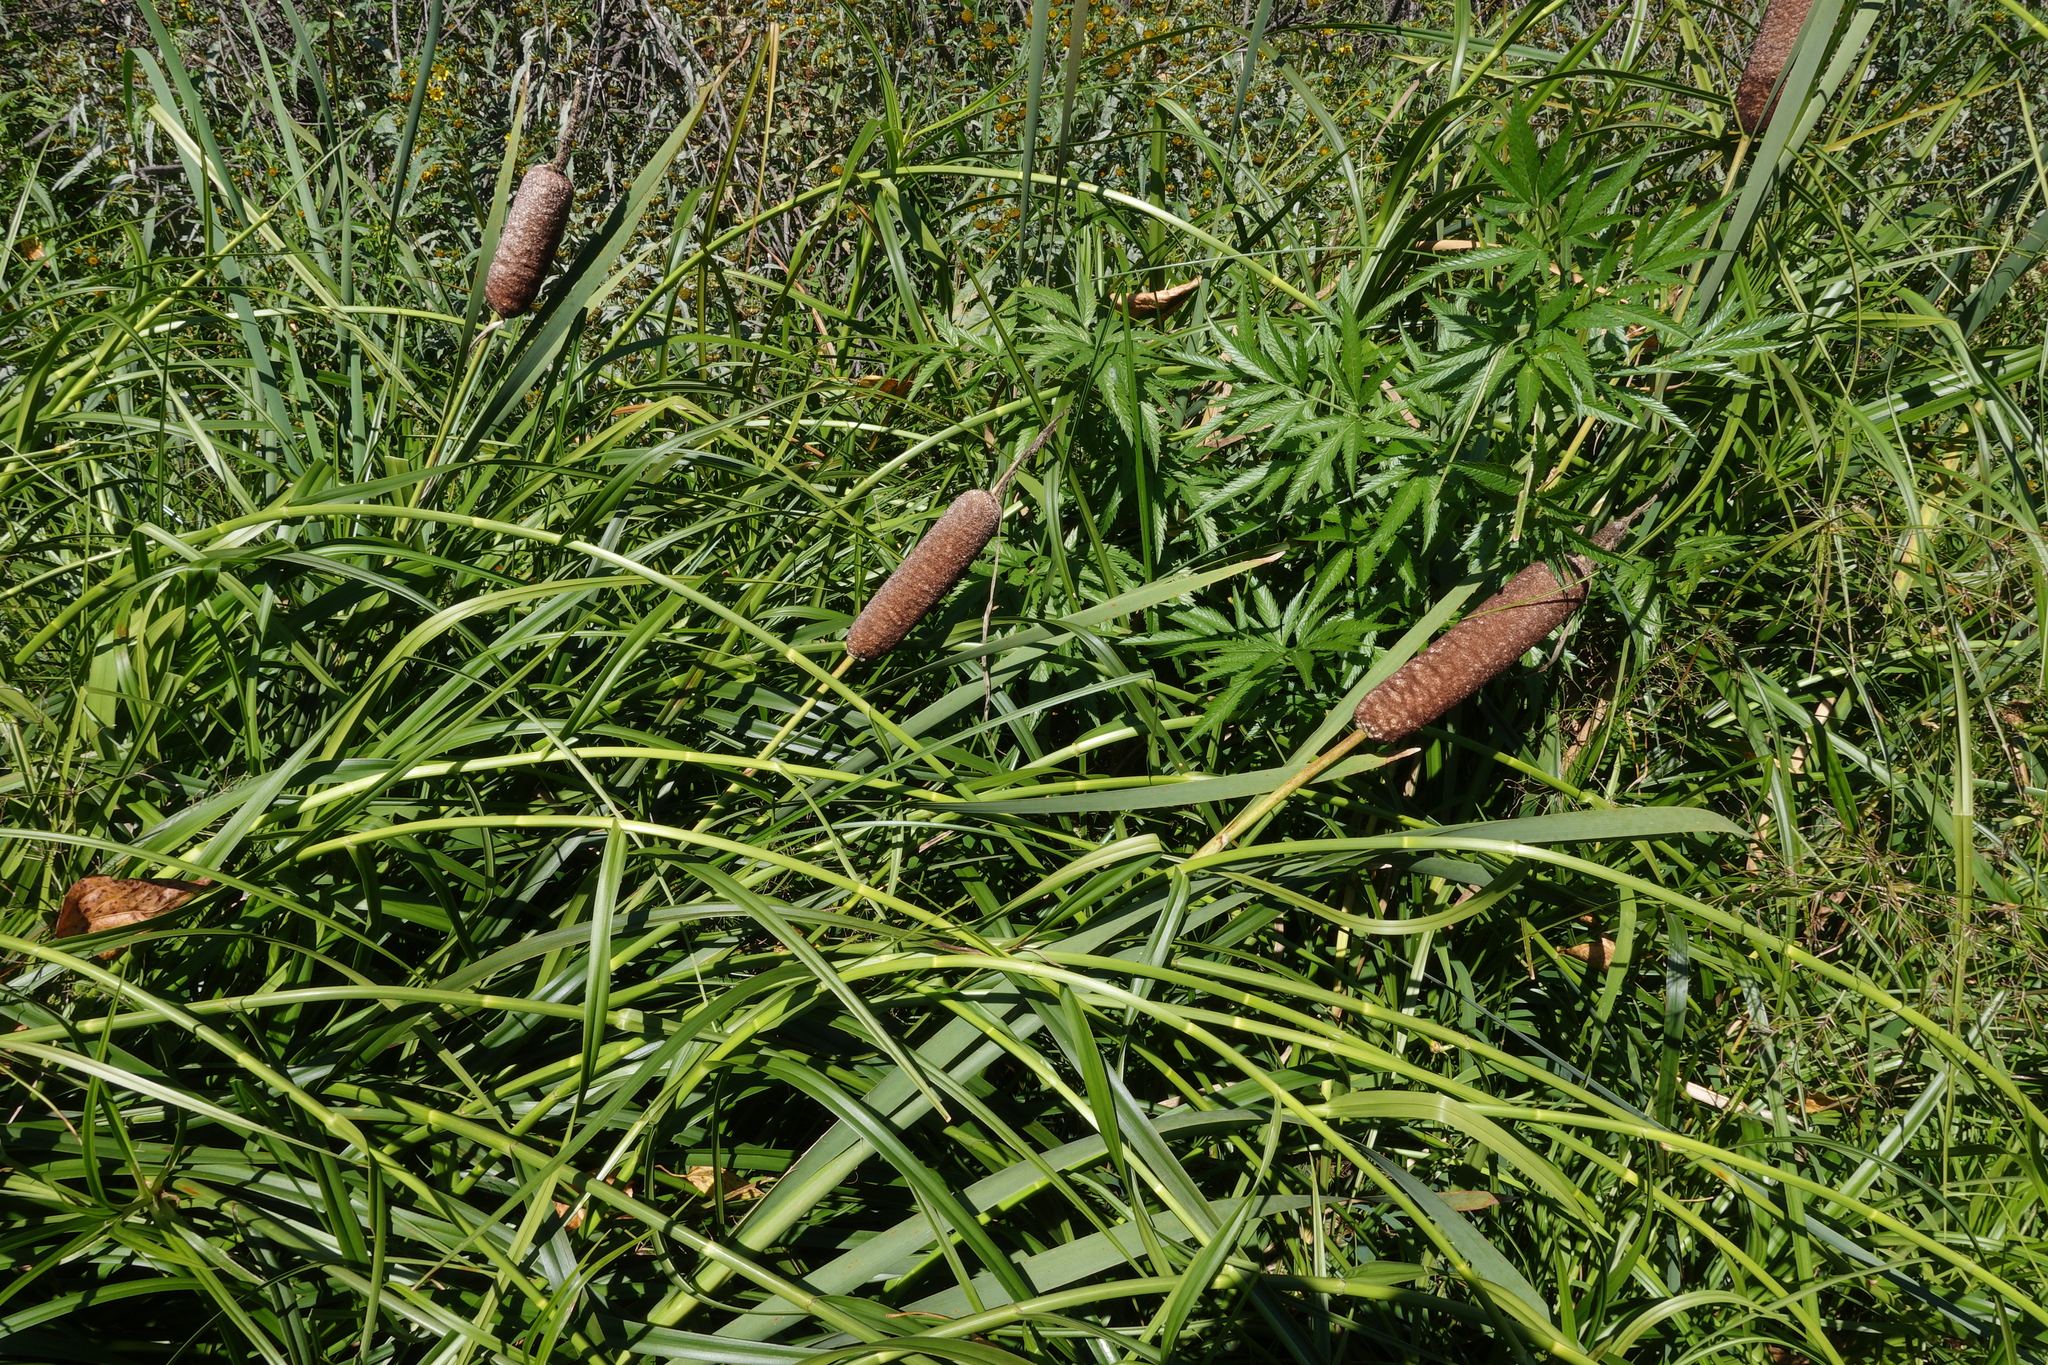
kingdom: Plantae
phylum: Tracheophyta
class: Liliopsida
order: Poales
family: Typhaceae
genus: Typha
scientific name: Typha incana
